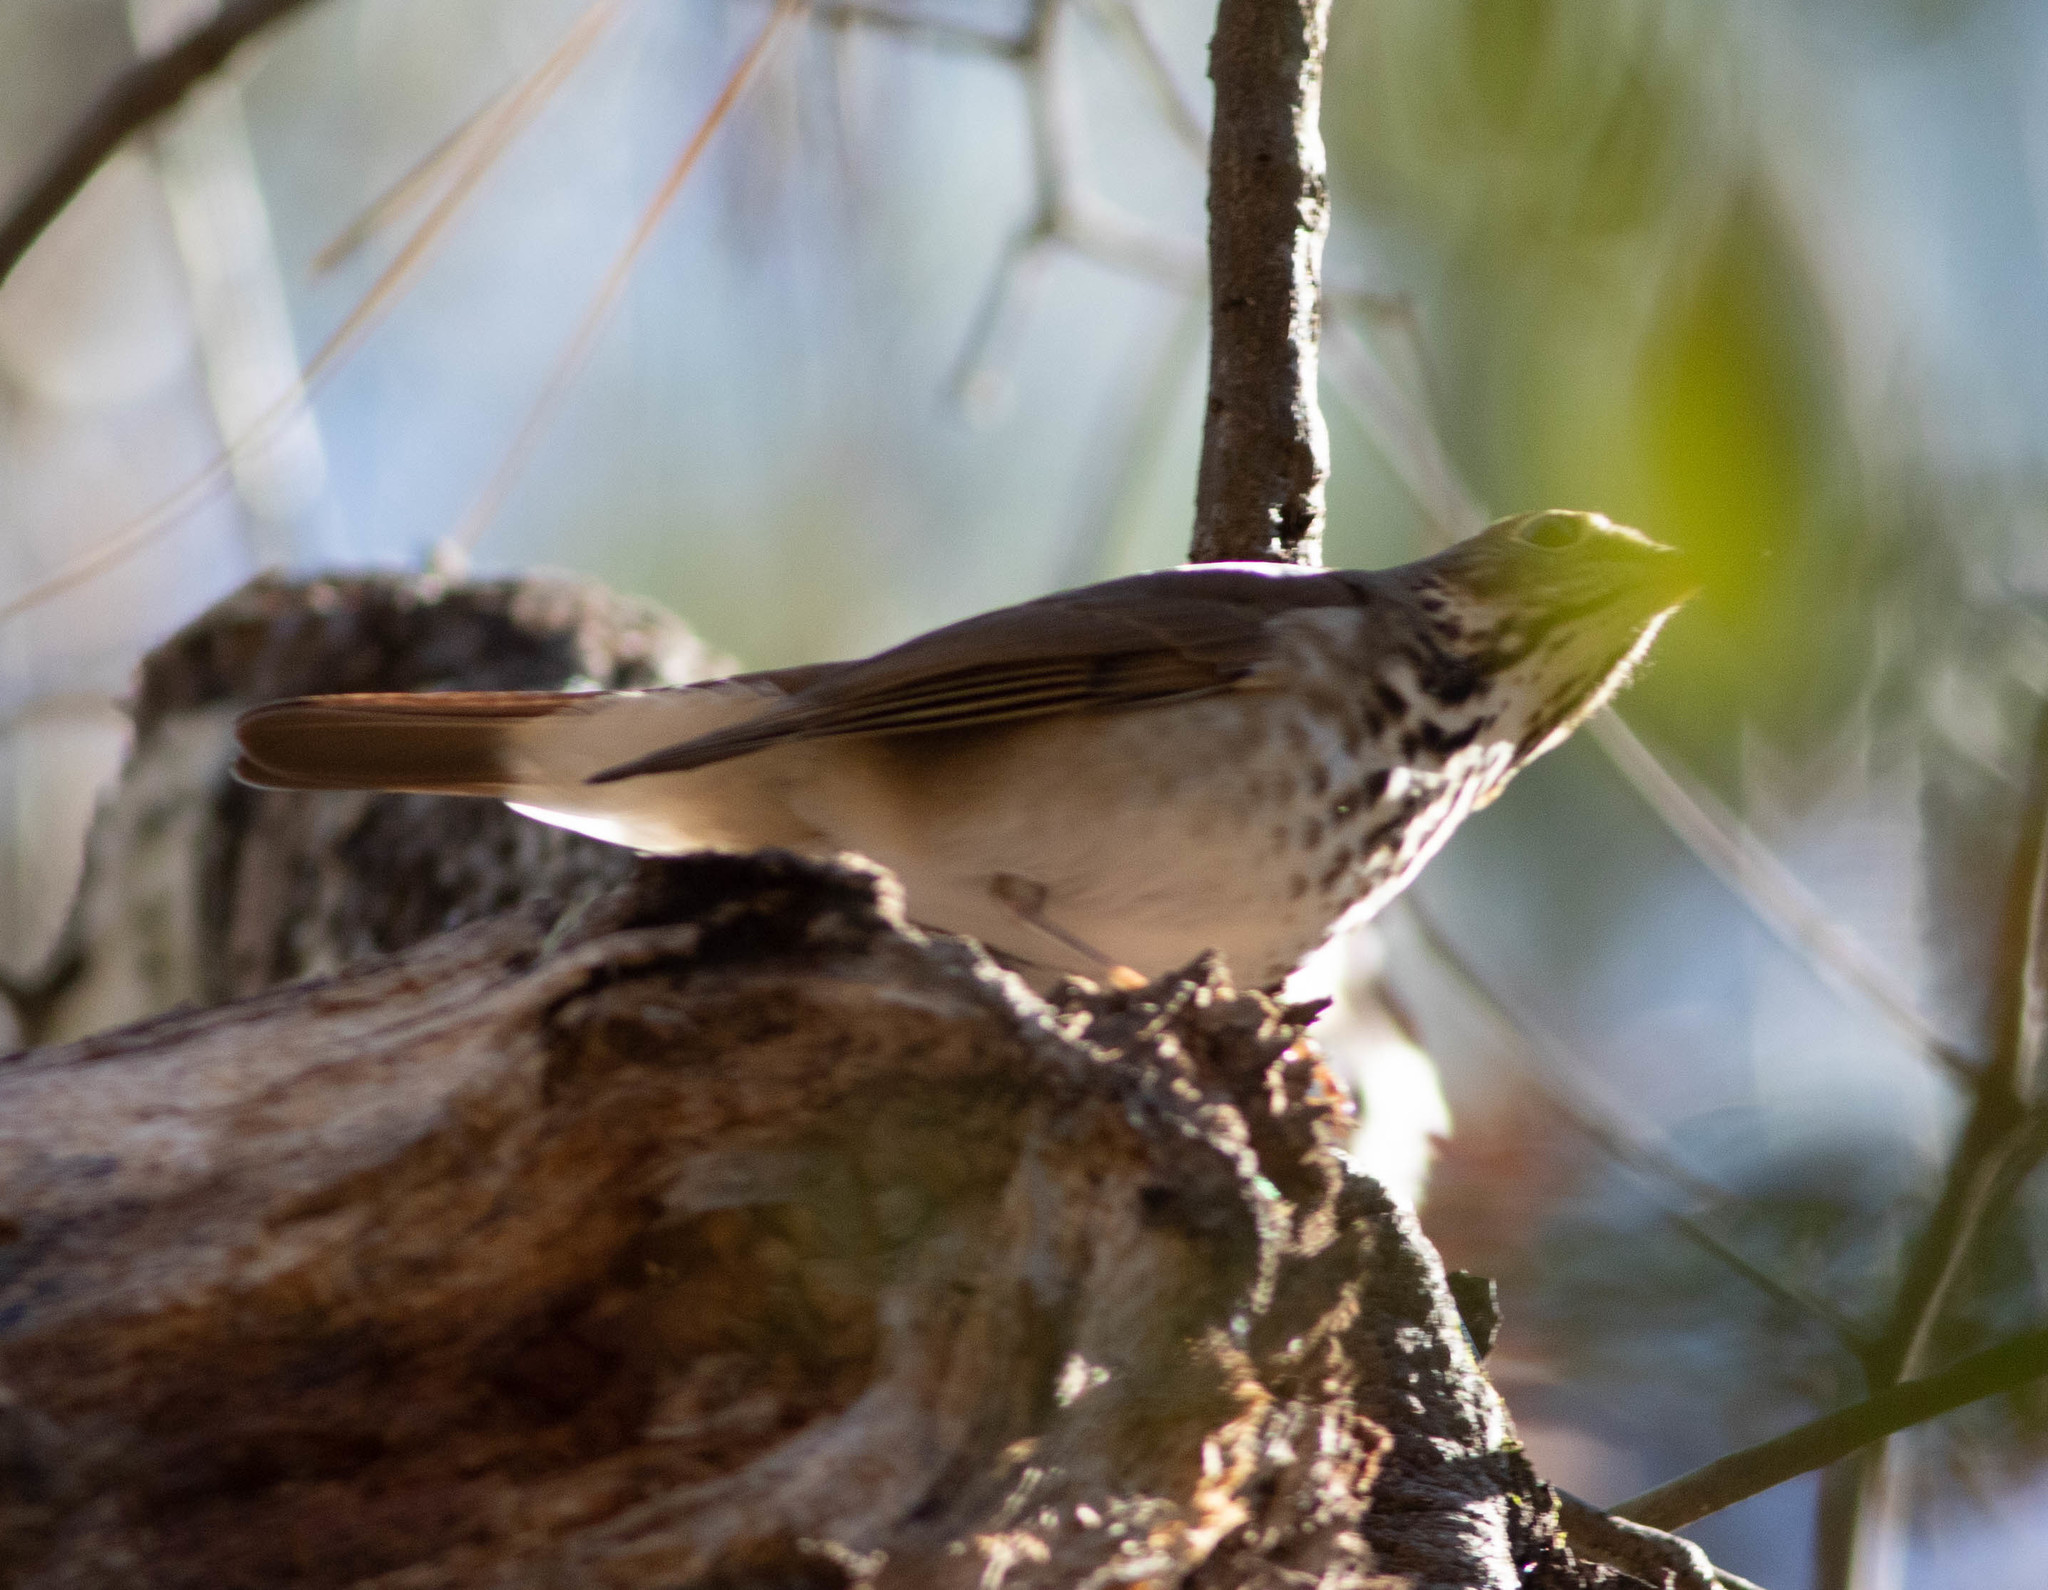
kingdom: Animalia
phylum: Chordata
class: Aves
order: Passeriformes
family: Turdidae
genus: Catharus
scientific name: Catharus guttatus
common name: Hermit thrush
